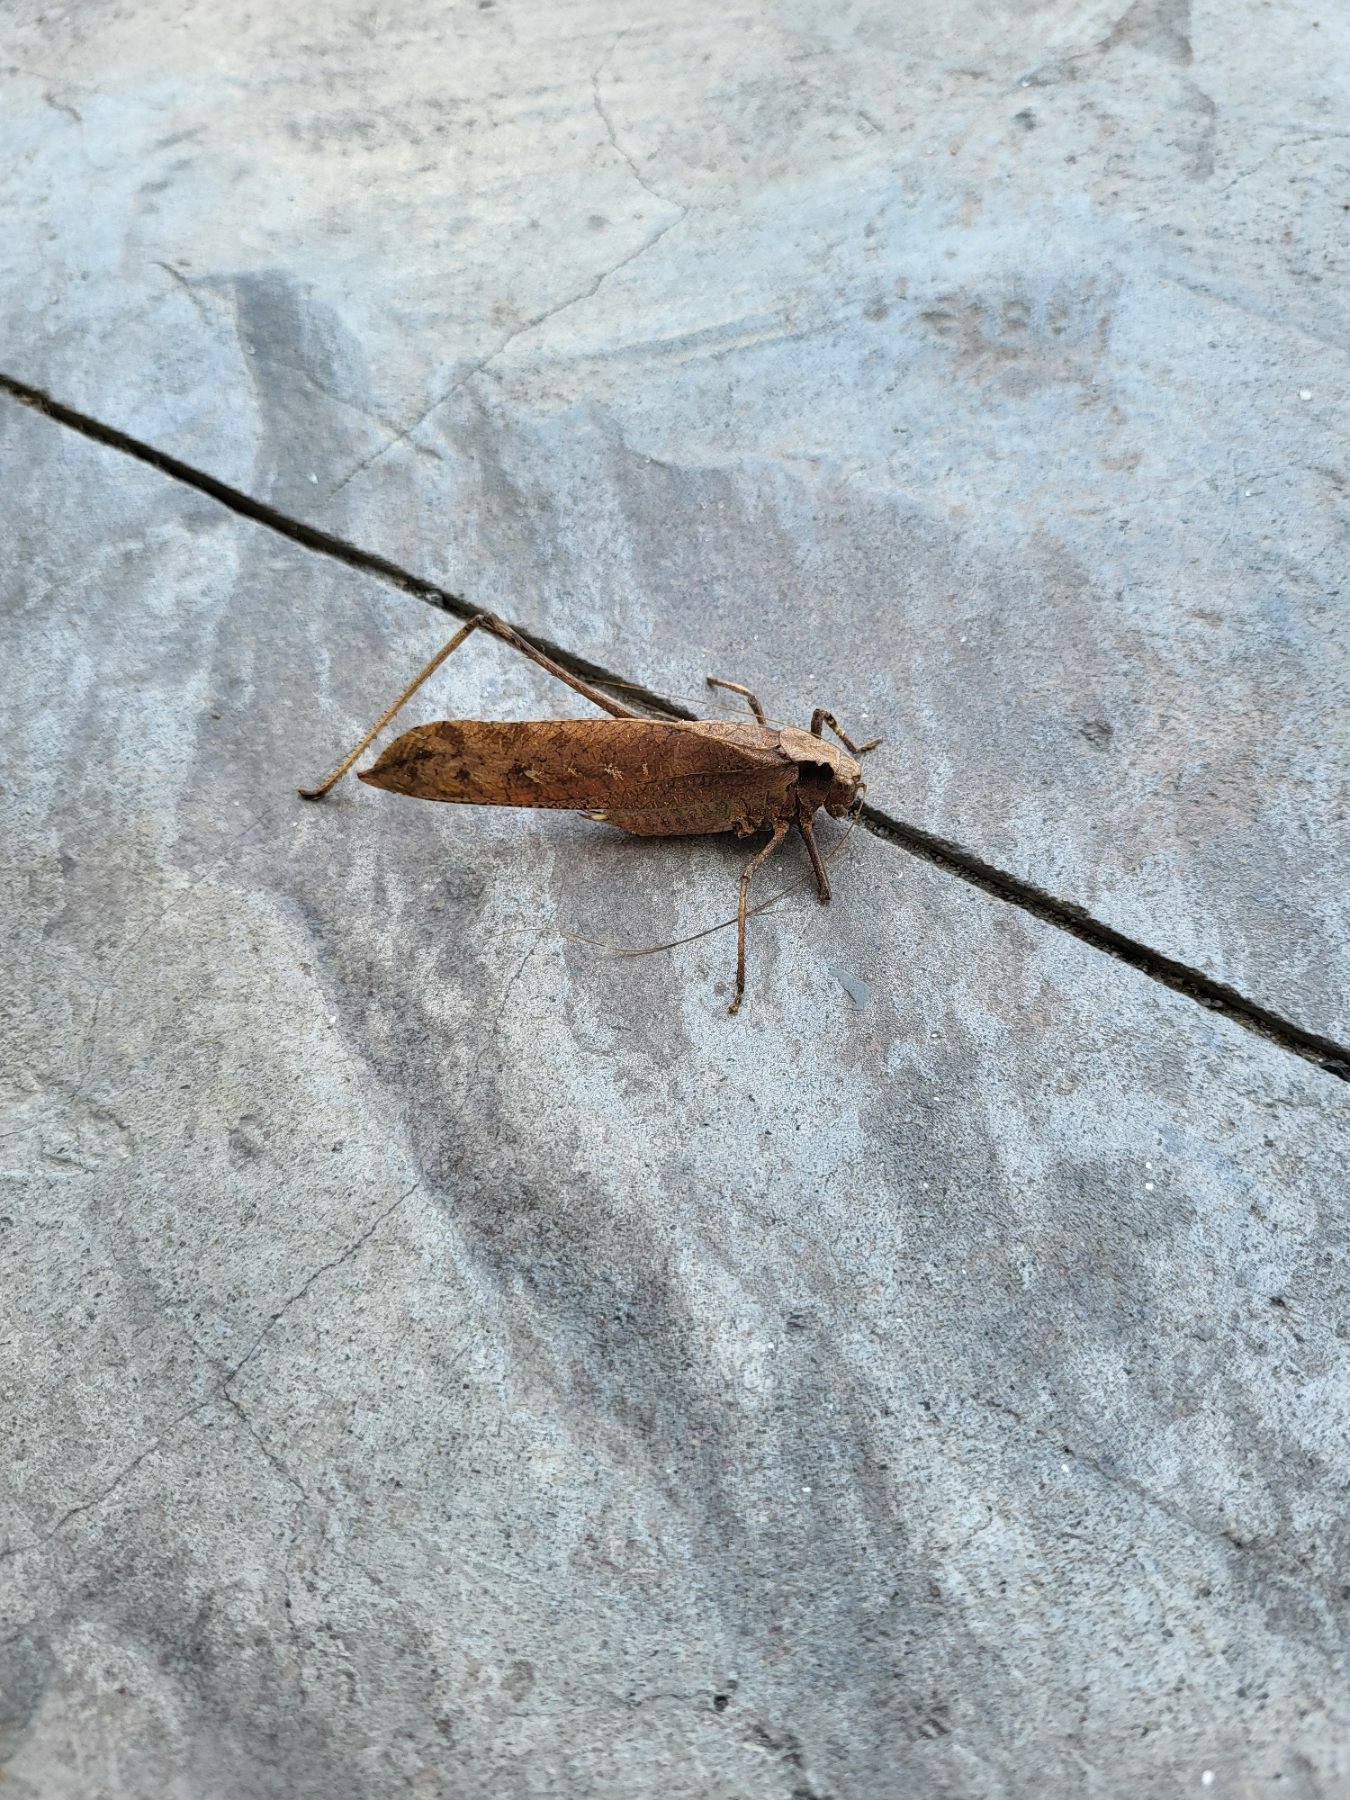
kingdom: Animalia
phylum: Arthropoda
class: Insecta
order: Orthoptera
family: Tettigoniidae
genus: Mecopoda
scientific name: Mecopoda elongata
